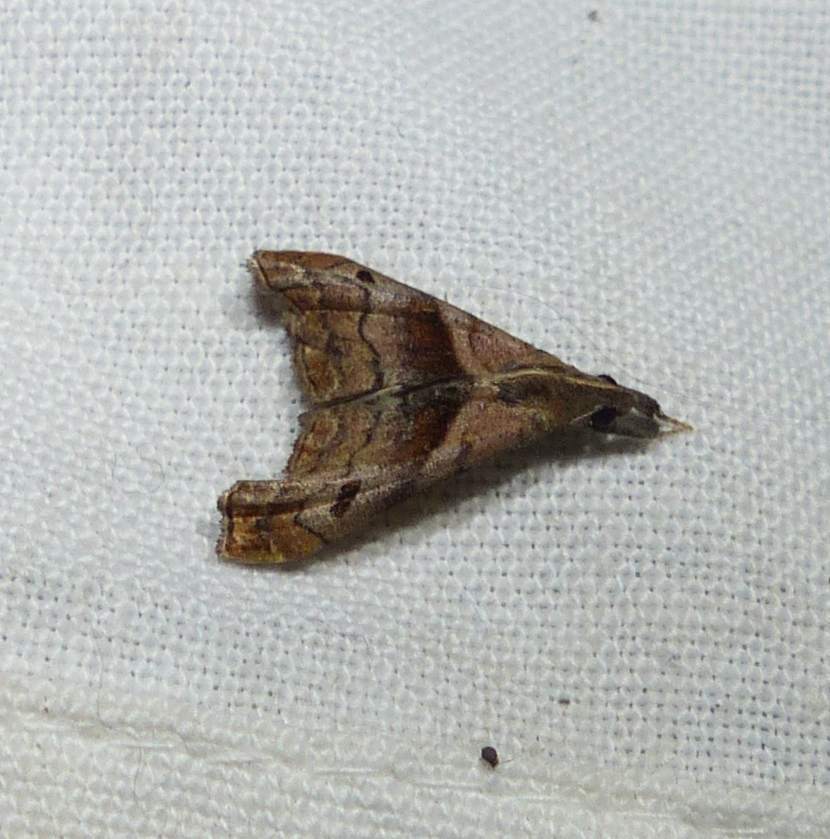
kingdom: Animalia
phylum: Arthropoda
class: Insecta
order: Lepidoptera
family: Erebidae
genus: Palthis
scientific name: Palthis angulalis
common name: Dark-spotted palthis moth
